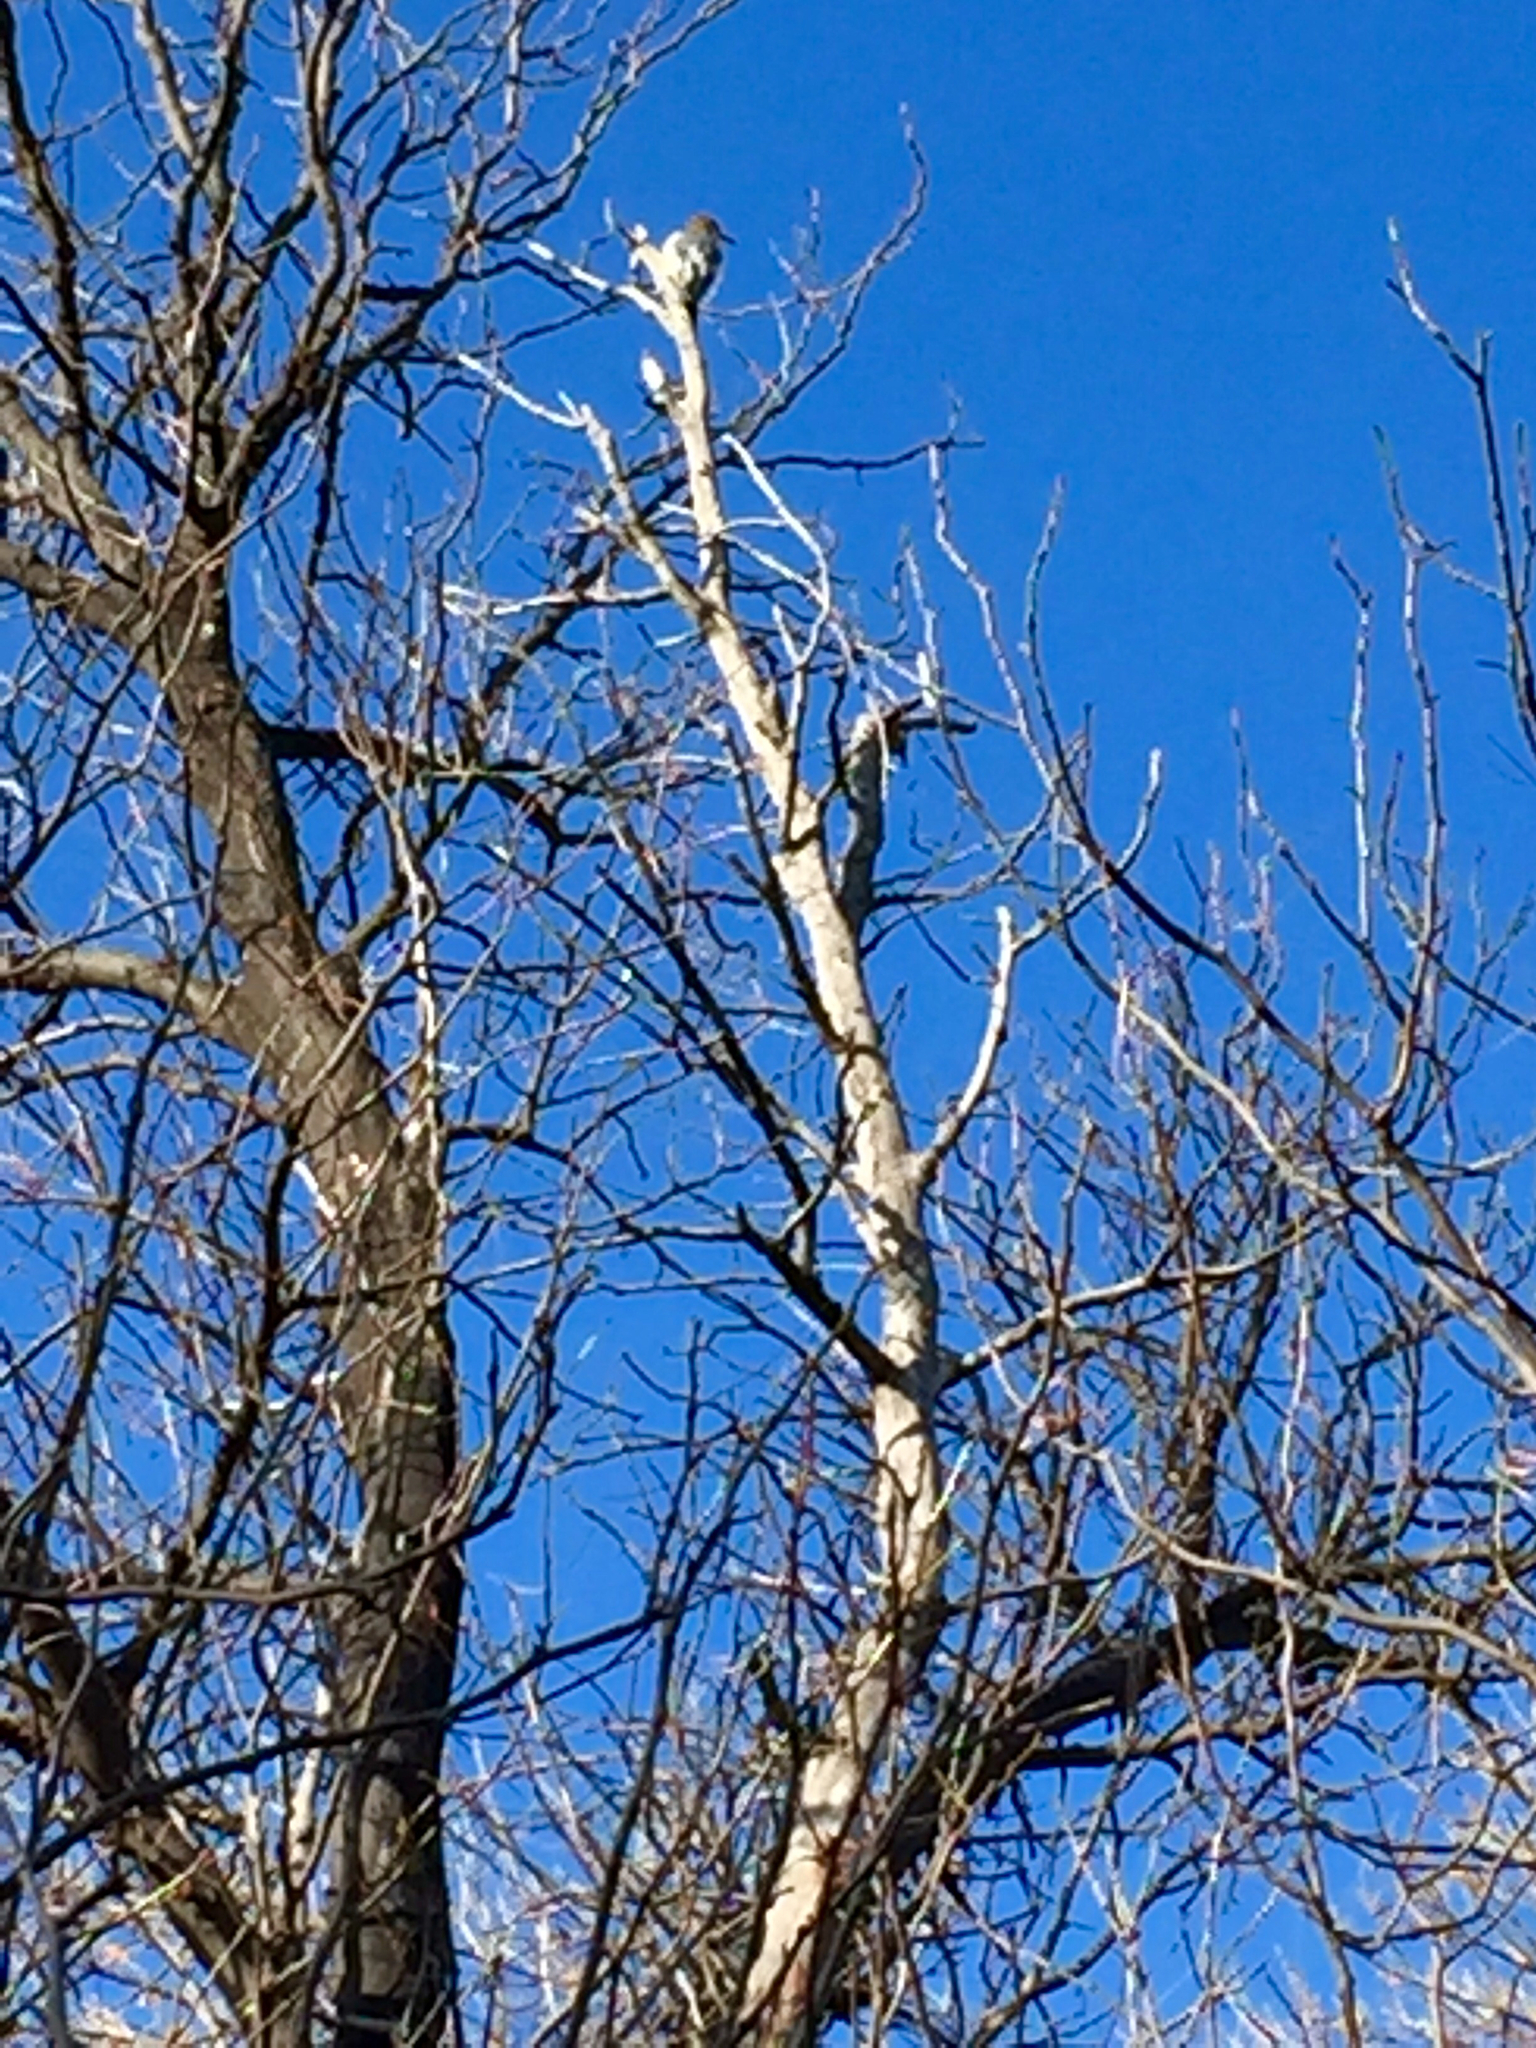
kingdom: Animalia
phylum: Chordata
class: Aves
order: Piciformes
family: Picidae
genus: Melanerpes
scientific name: Melanerpes aurifrons
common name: Golden-fronted woodpecker
